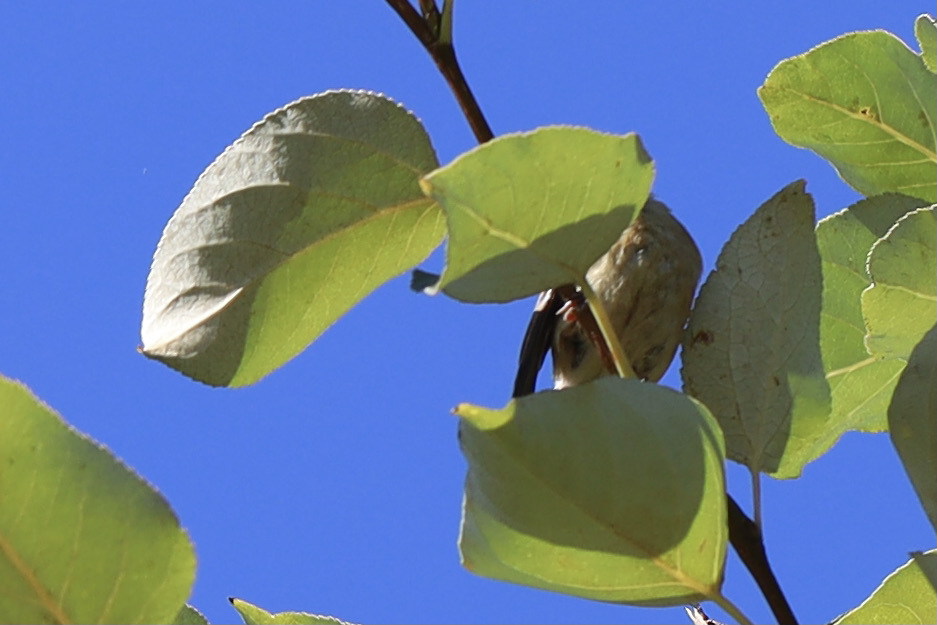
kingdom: Animalia
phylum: Chordata
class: Aves
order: Passeriformes
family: Fringillidae
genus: Spinus
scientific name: Spinus tristis
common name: American goldfinch
